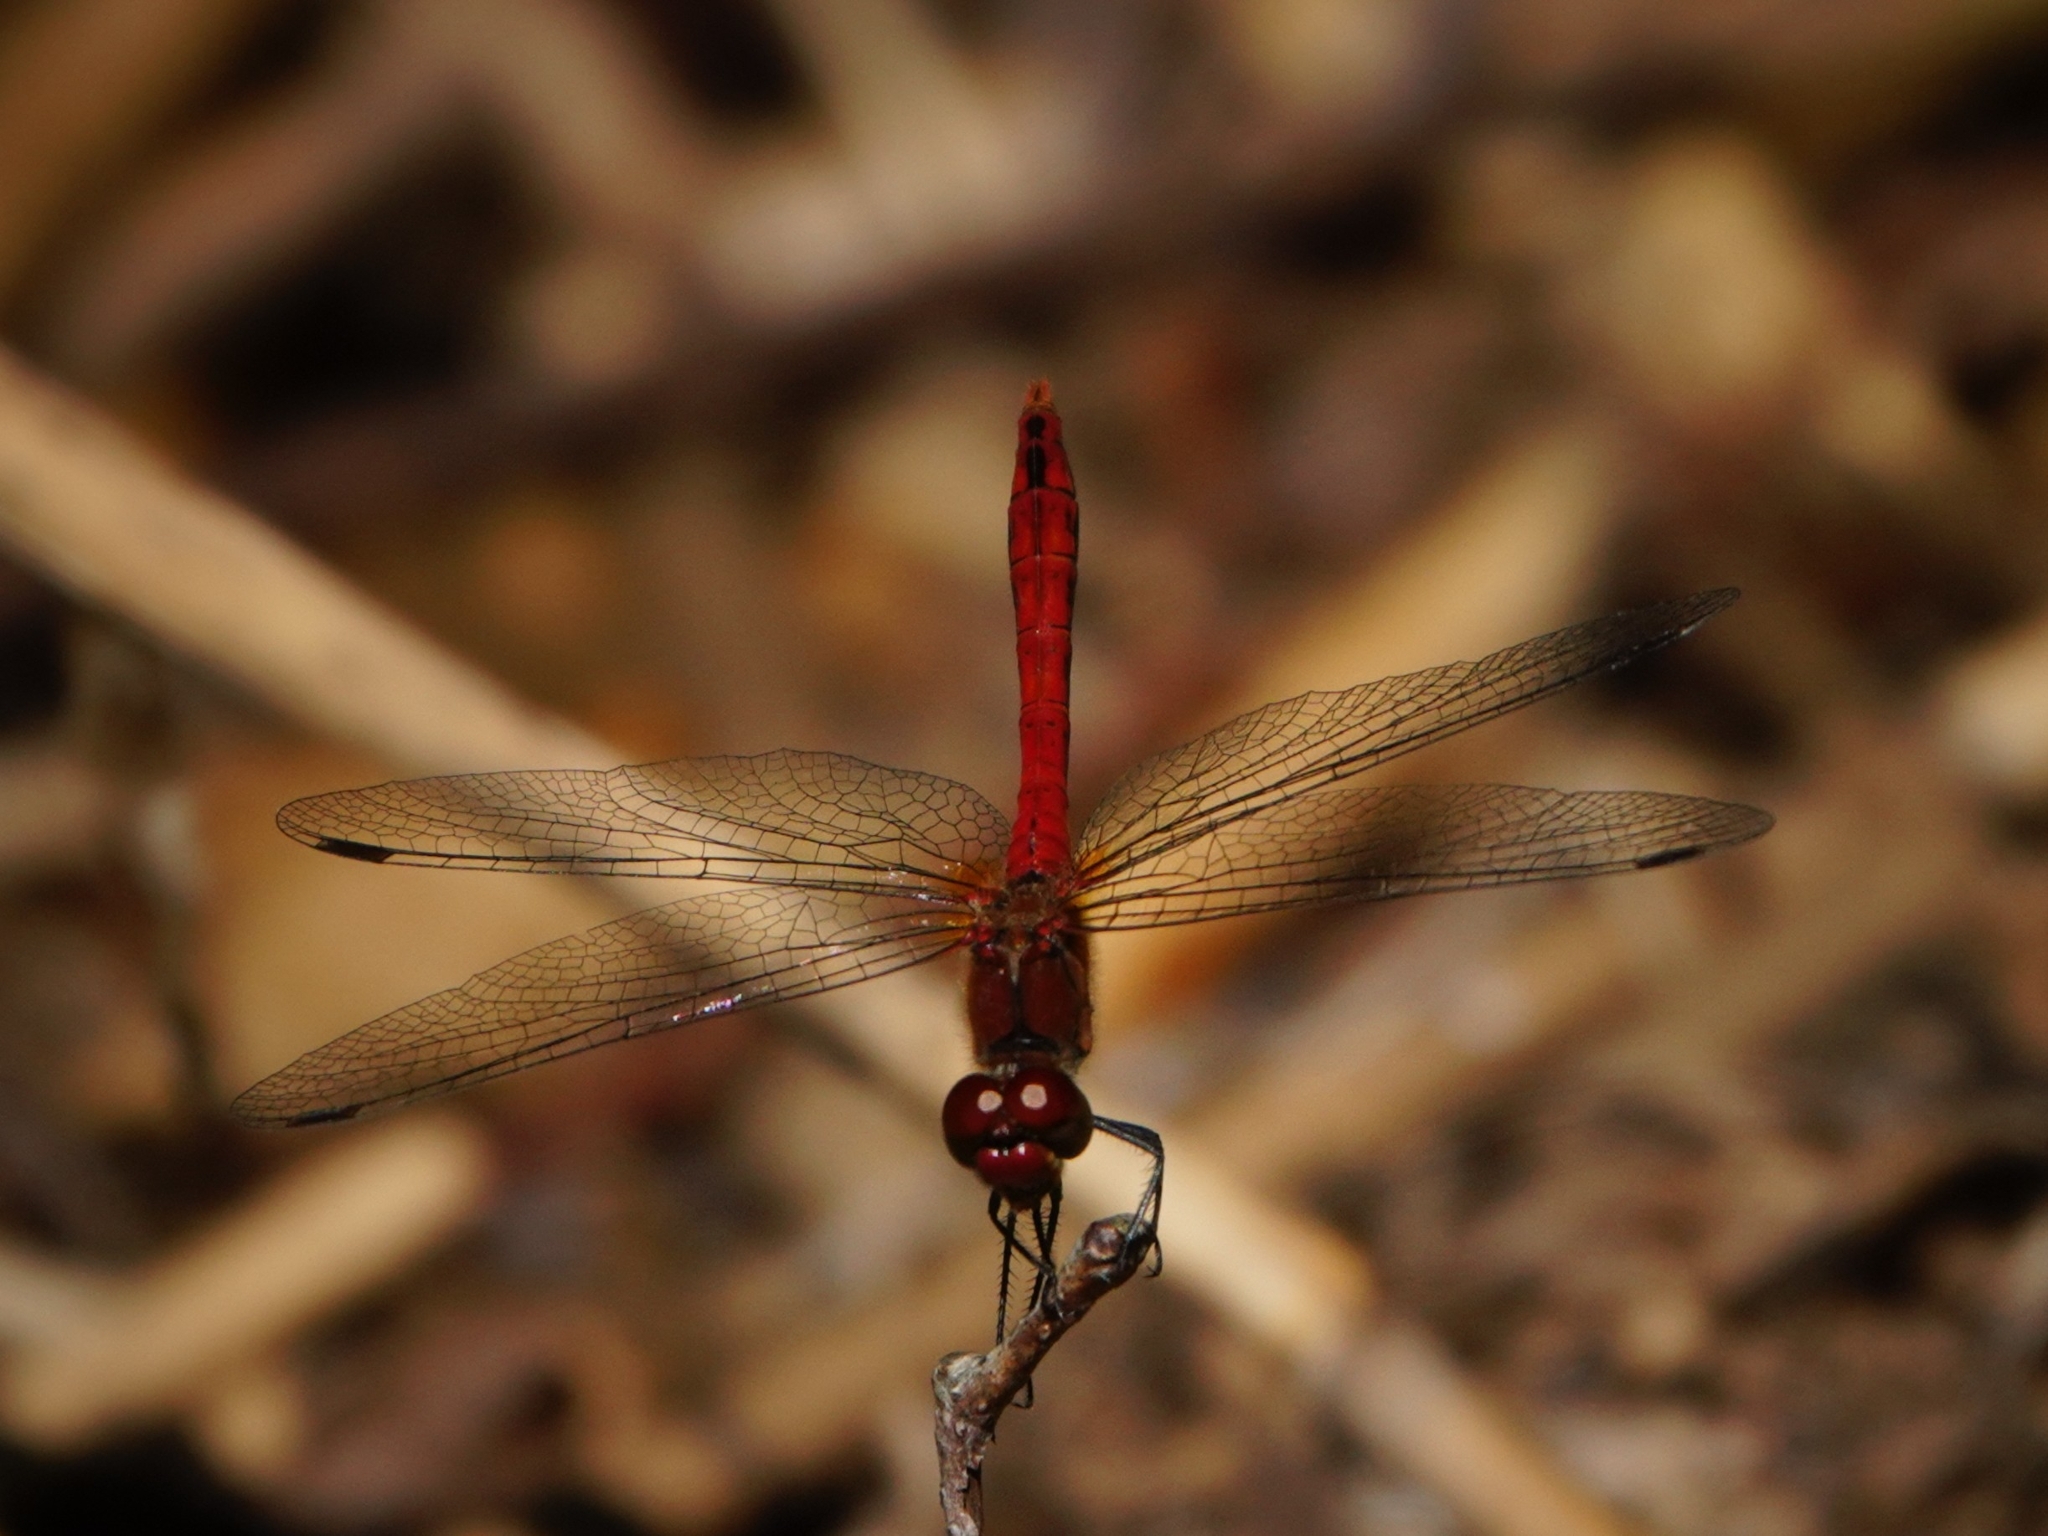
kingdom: Animalia
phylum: Arthropoda
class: Insecta
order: Odonata
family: Libellulidae
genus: Sympetrum
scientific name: Sympetrum sanguineum
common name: Ruddy darter
